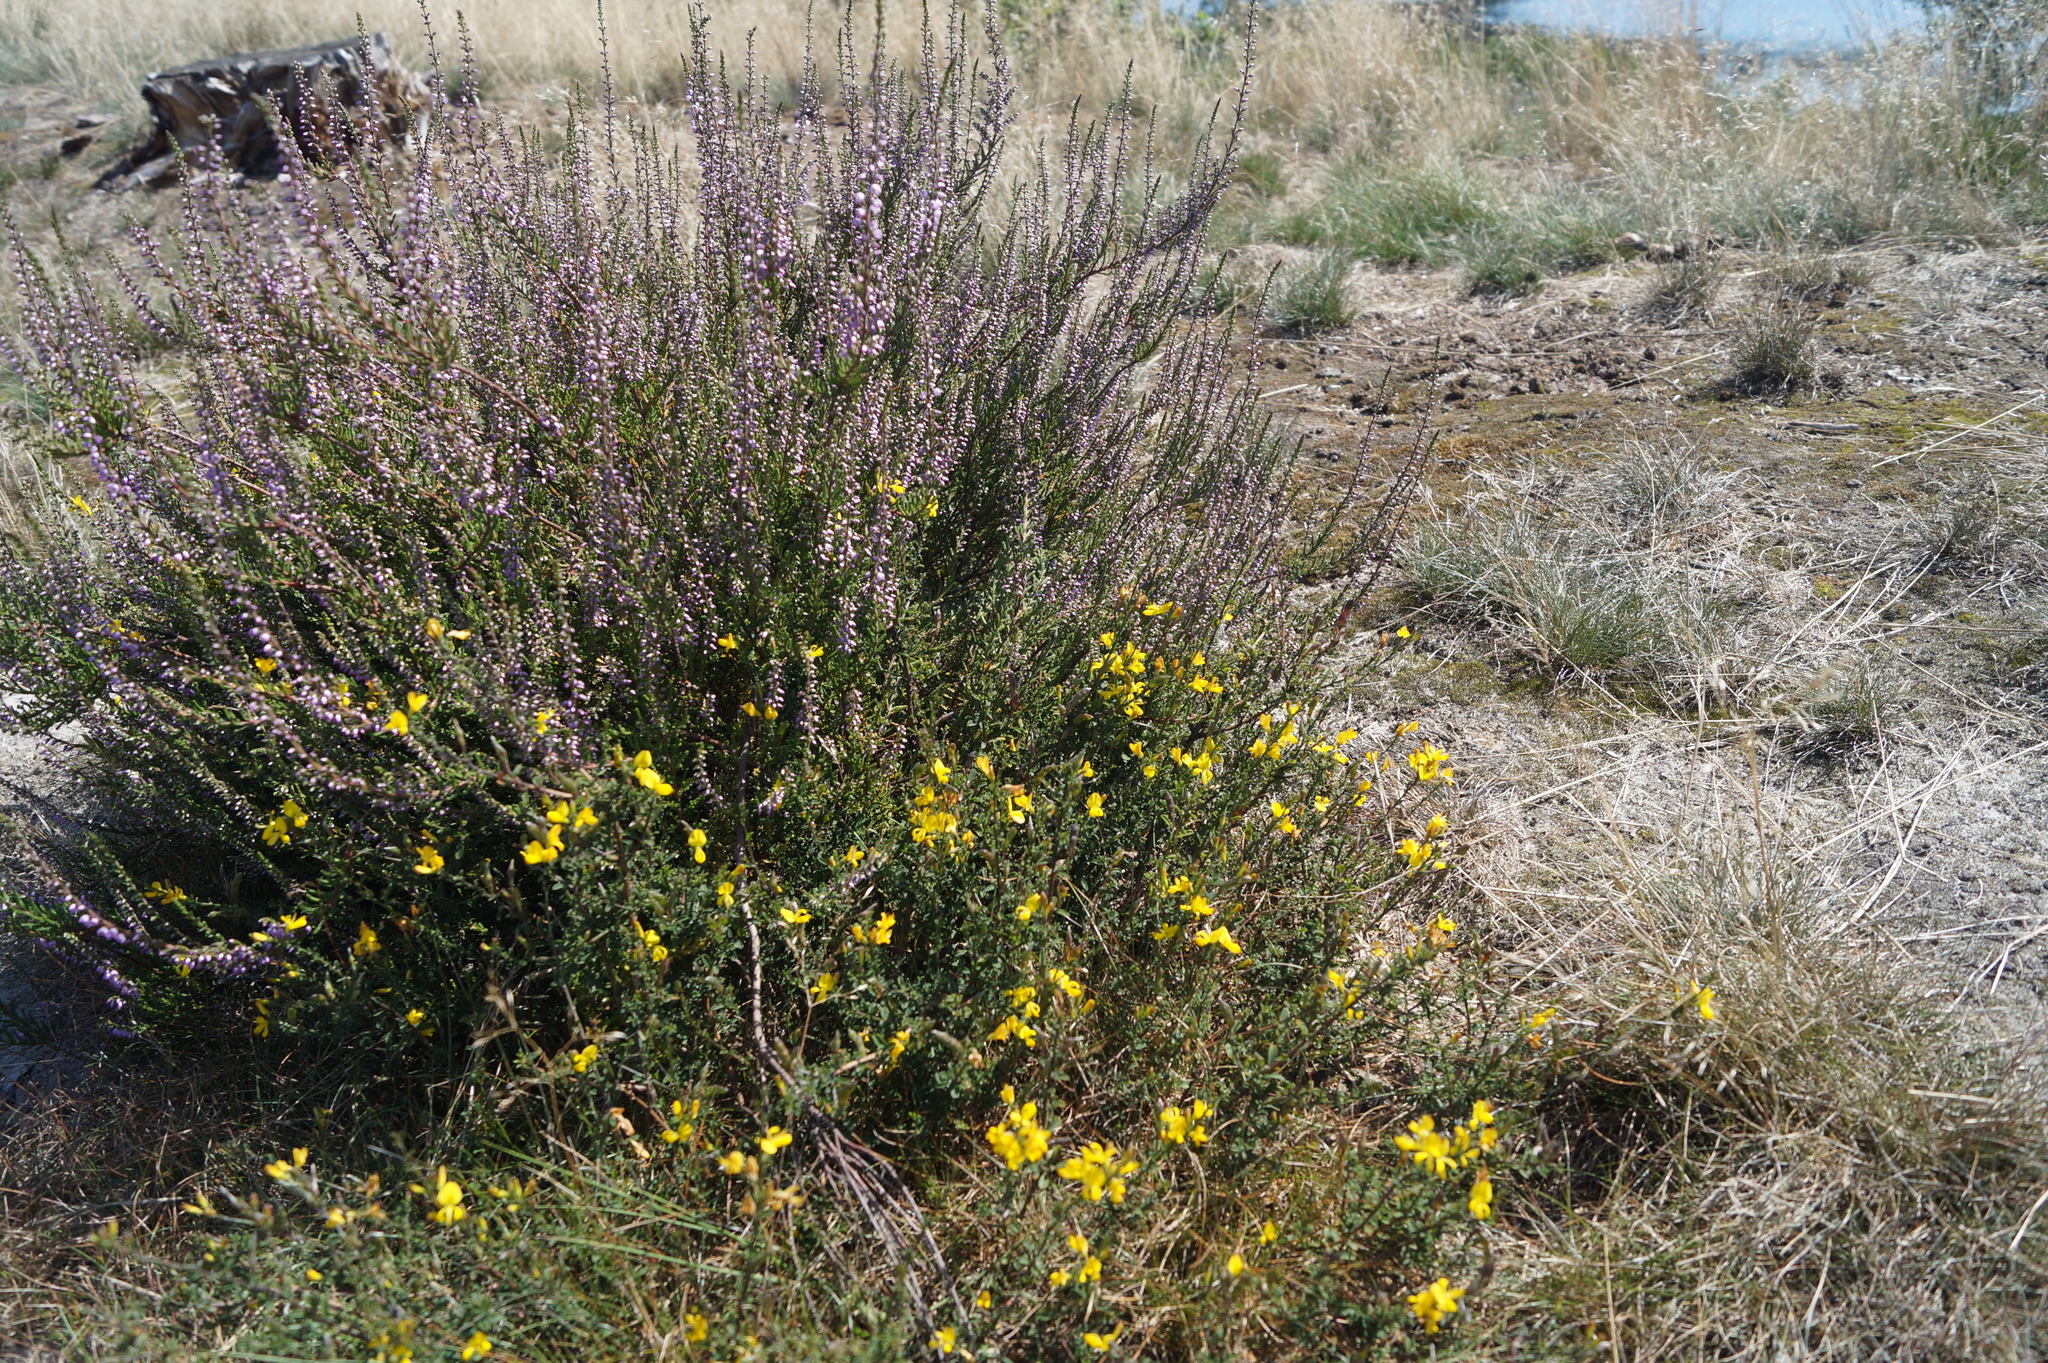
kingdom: Plantae
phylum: Tracheophyta
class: Magnoliopsida
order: Fabales
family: Fabaceae
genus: Genista
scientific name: Genista pilosa
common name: Hairy greenweed
